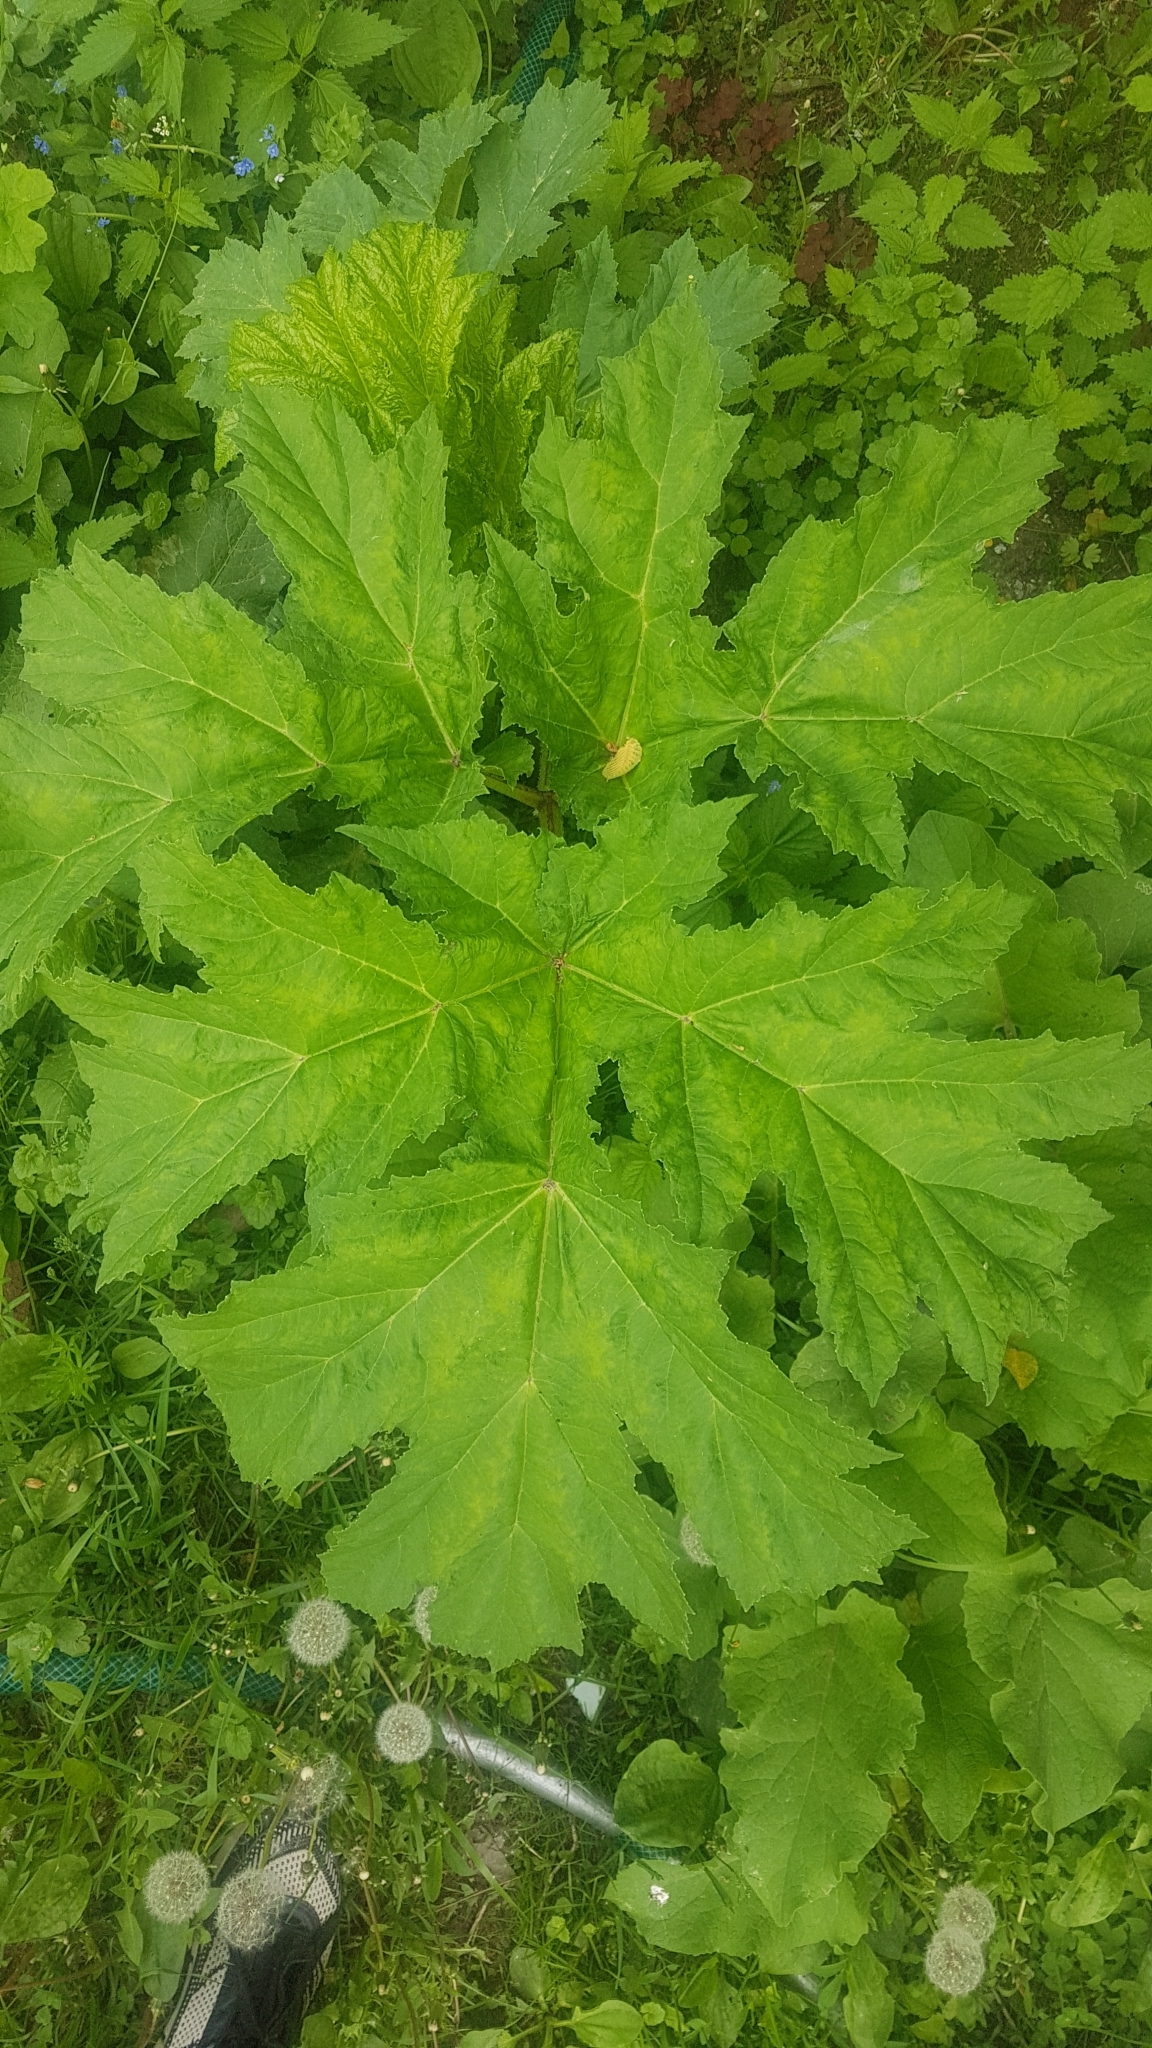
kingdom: Plantae
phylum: Tracheophyta
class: Magnoliopsida
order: Apiales
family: Apiaceae
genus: Heracleum
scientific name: Heracleum sosnowskyi
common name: Sosnowsky's hogweed
